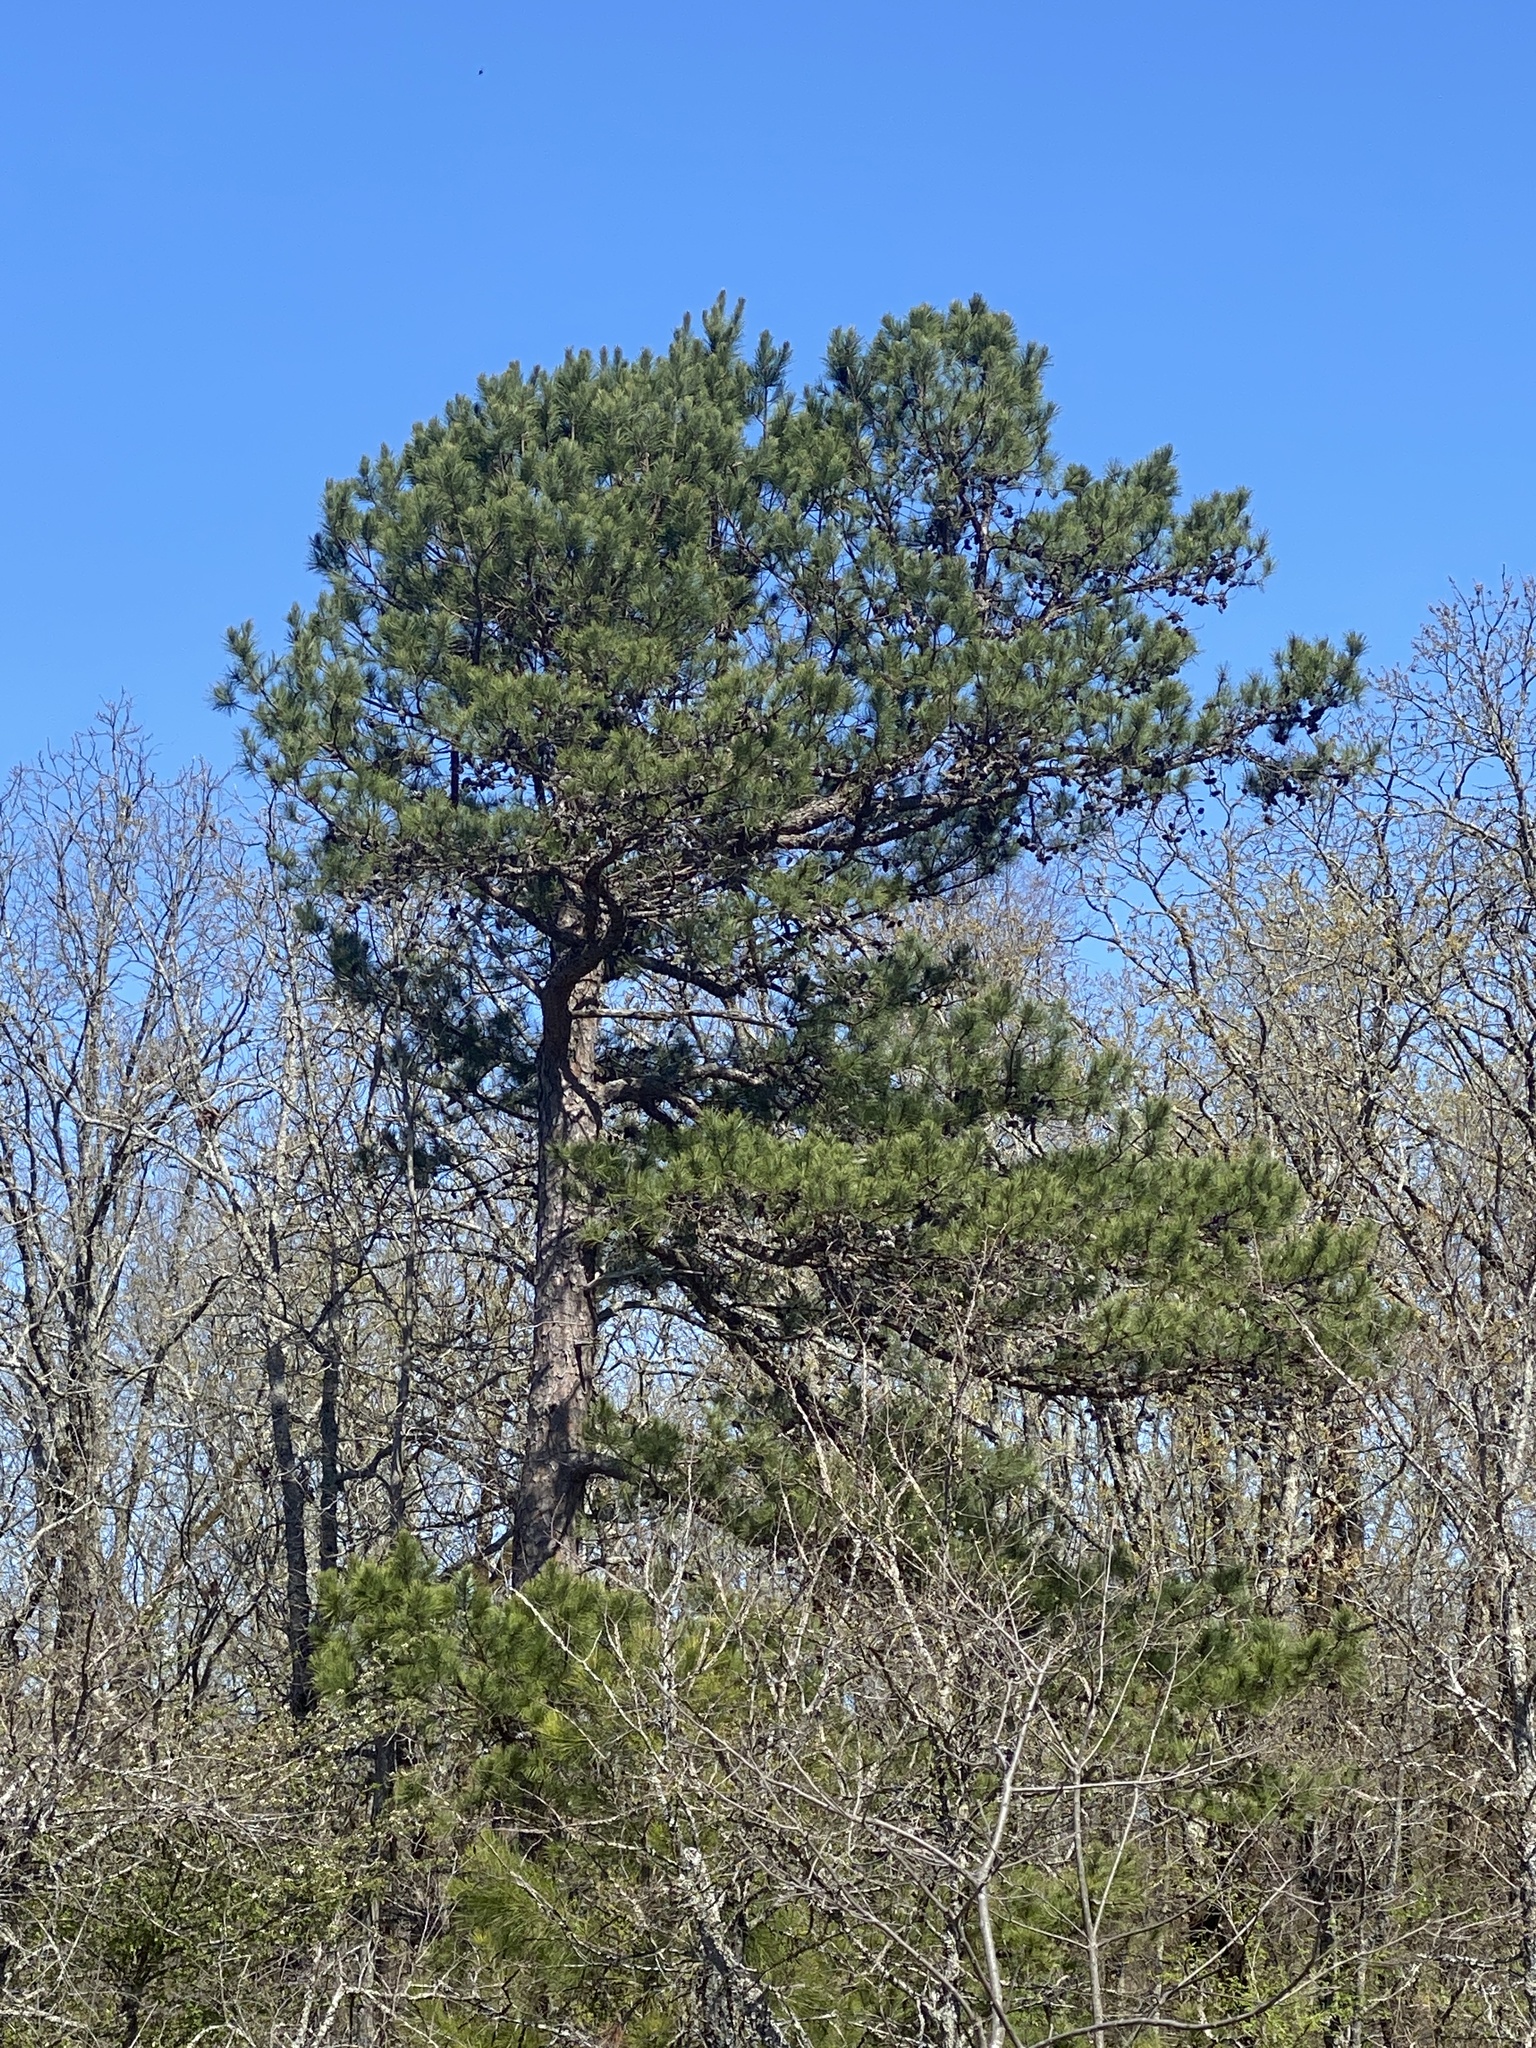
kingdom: Plantae
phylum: Tracheophyta
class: Pinopsida
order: Pinales
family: Pinaceae
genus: Pinus
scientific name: Pinus echinata
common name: Shortleaf pine
